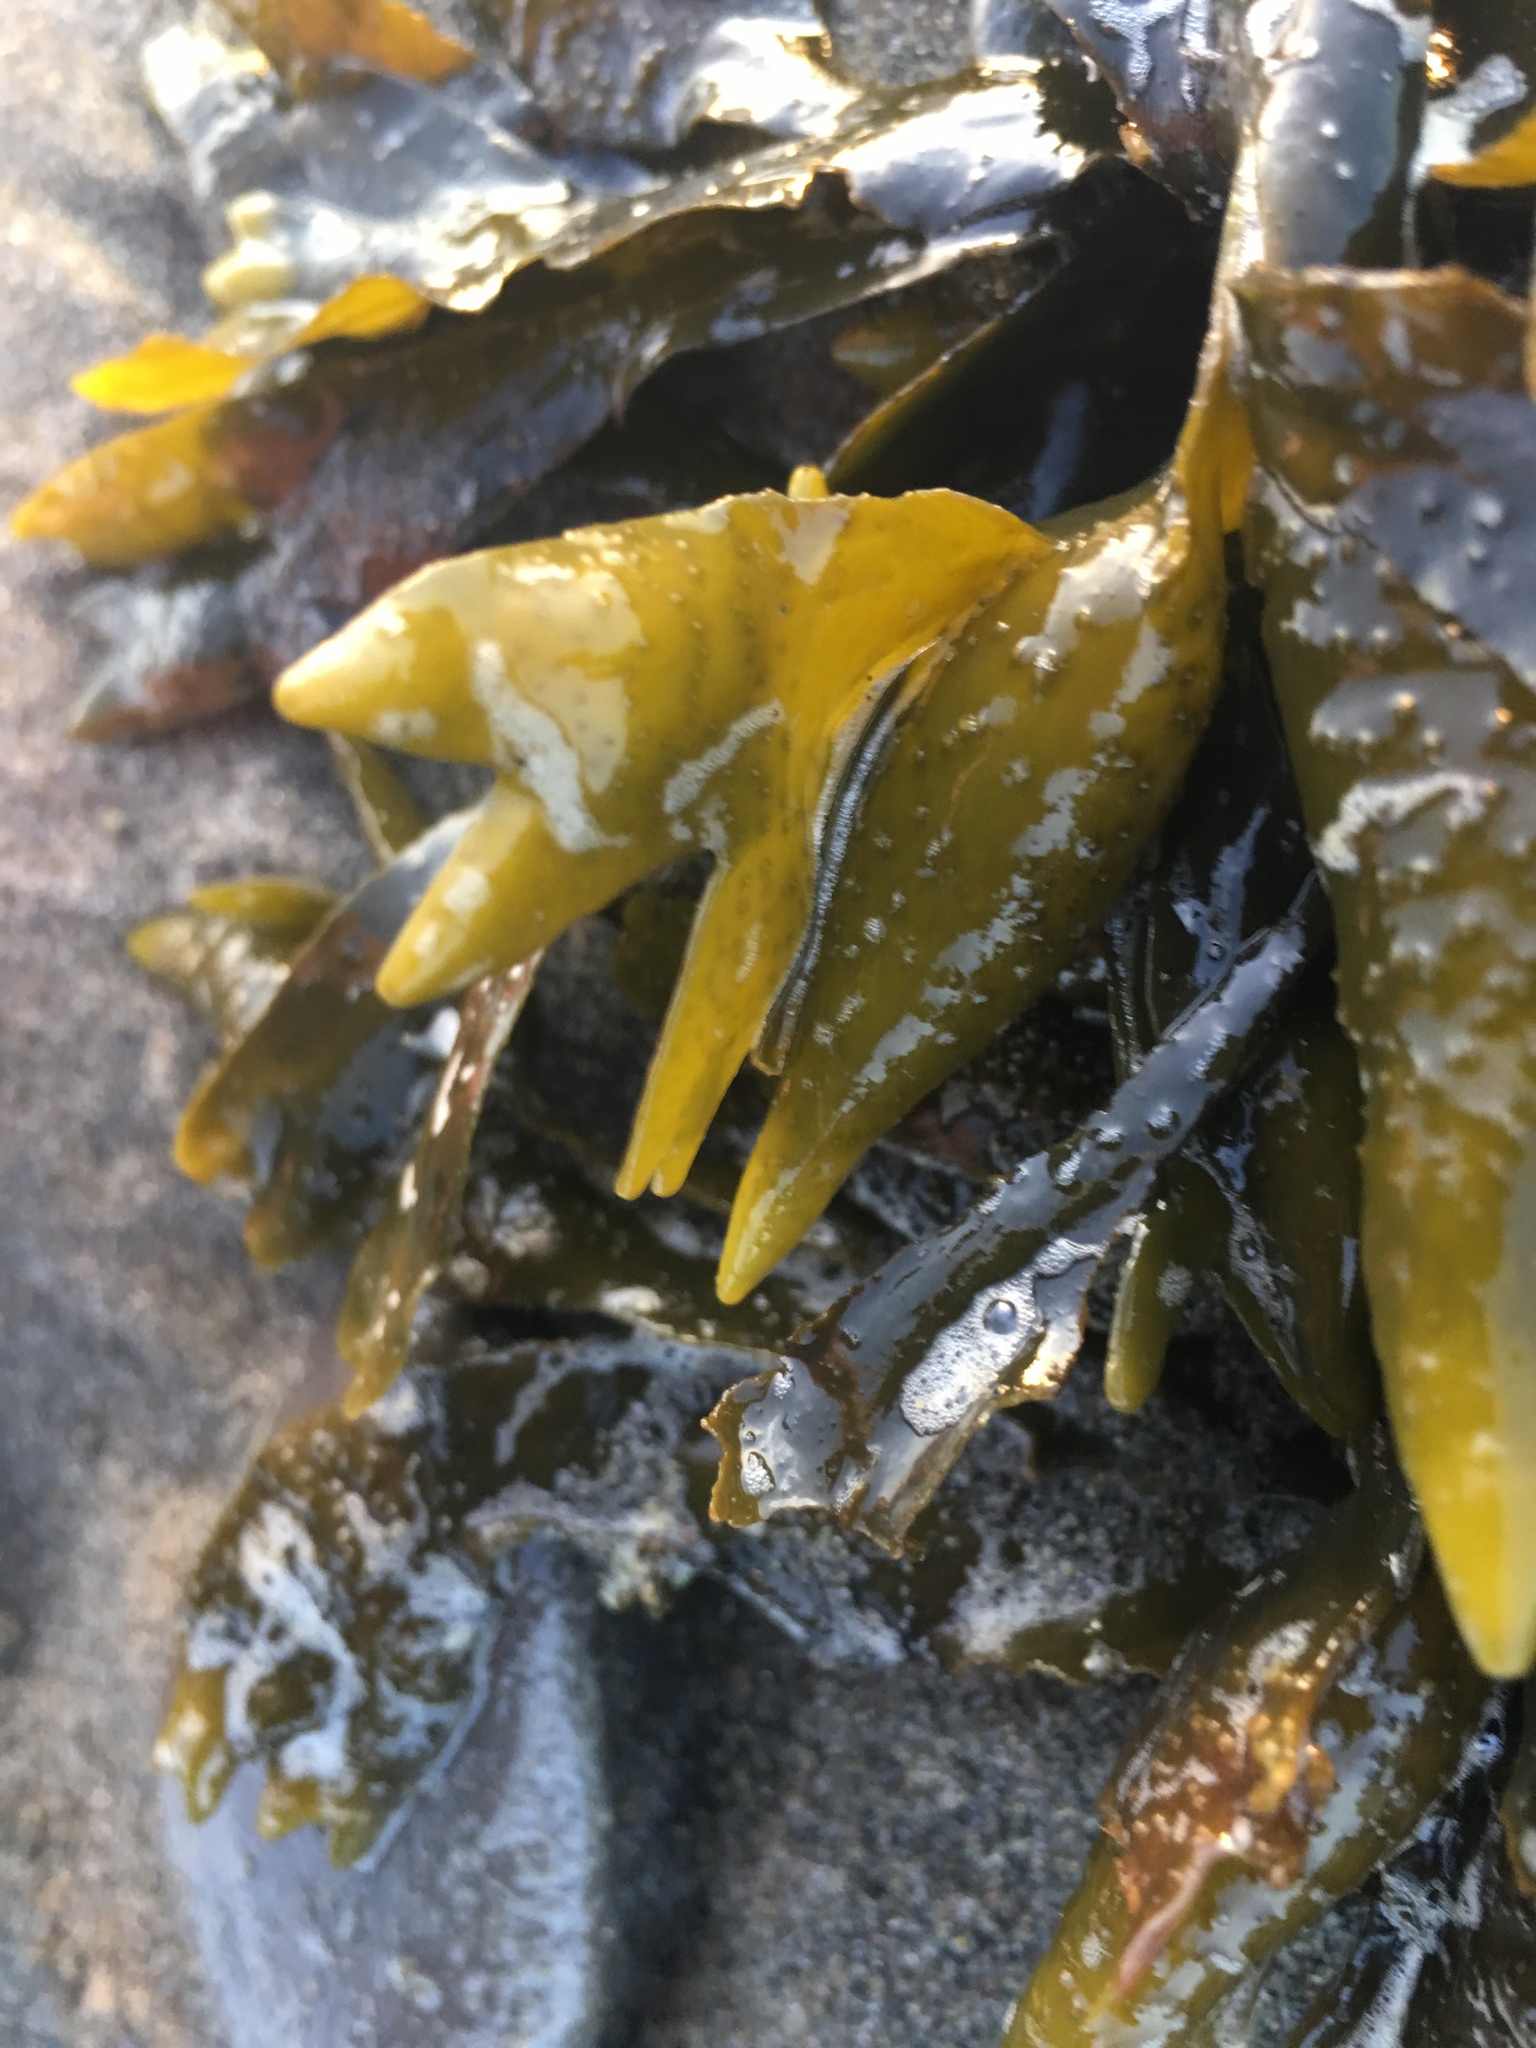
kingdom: Chromista
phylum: Ochrophyta
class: Phaeophyceae
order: Fucales
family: Fucaceae
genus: Fucus
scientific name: Fucus distichus
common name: Rockweed
